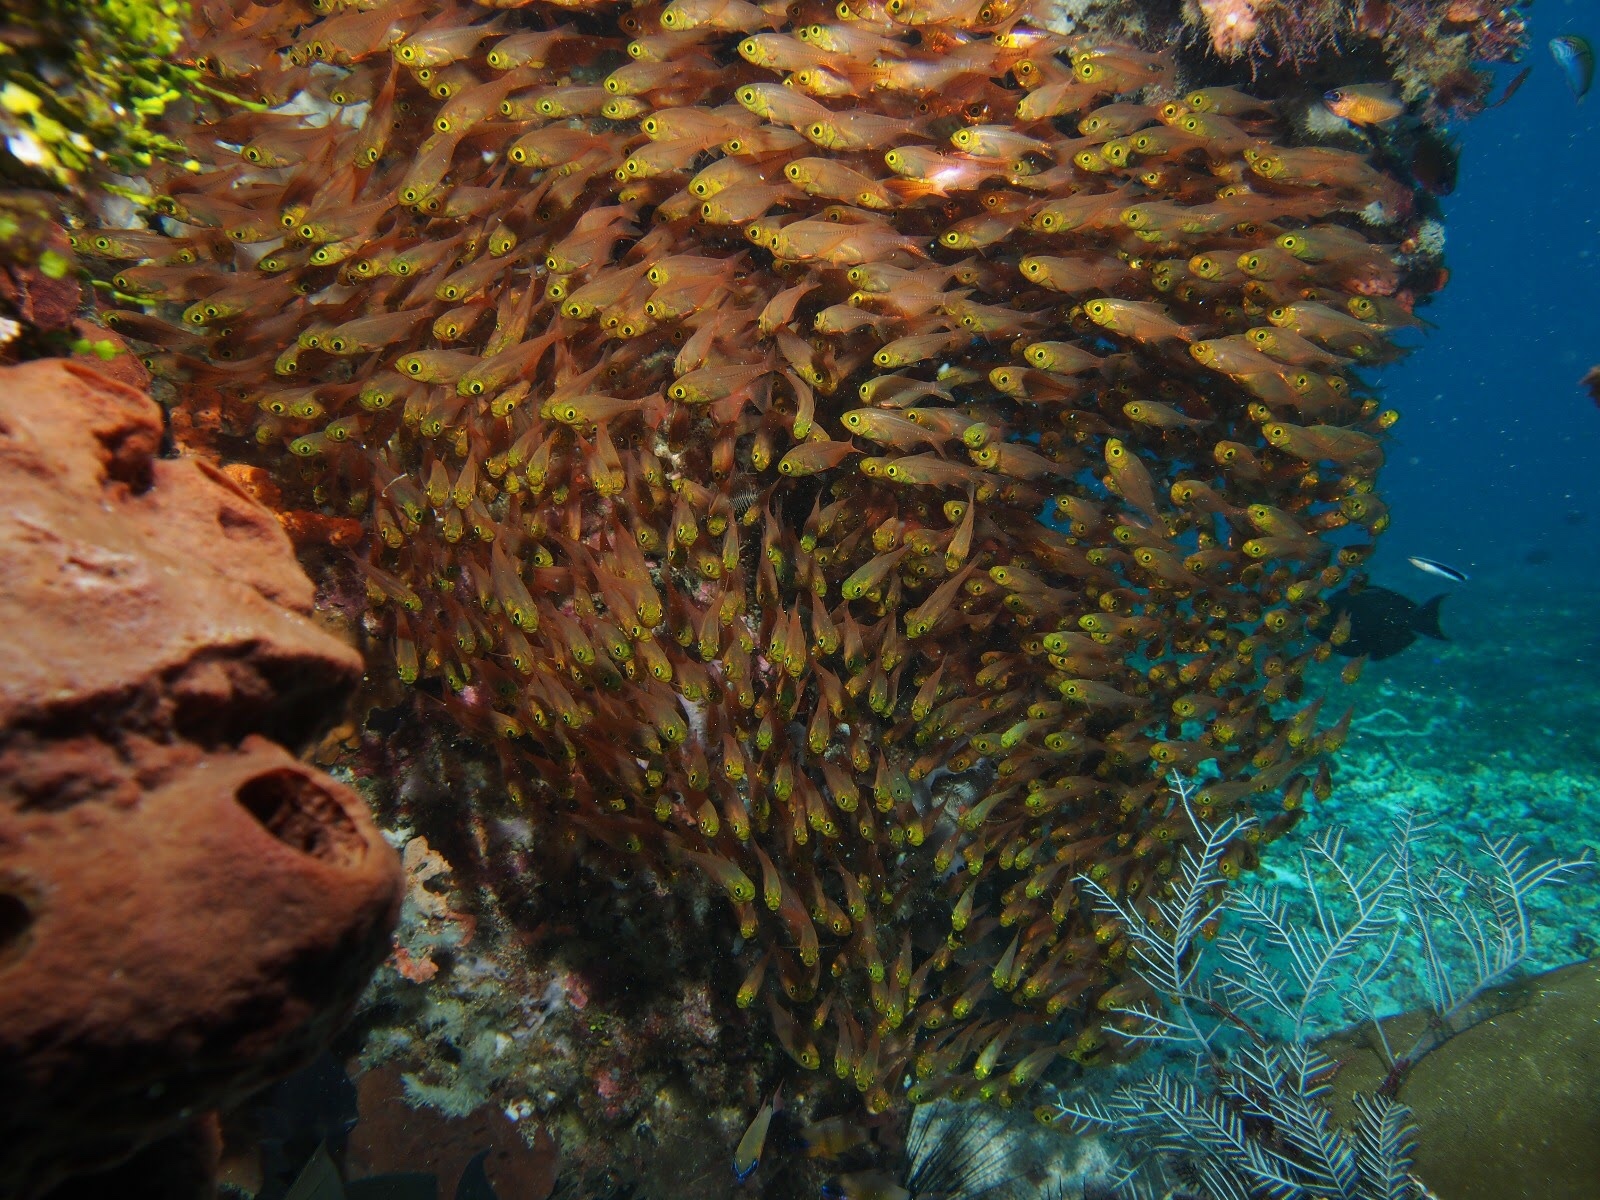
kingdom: Animalia
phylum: Chordata
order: Perciformes
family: Pempheridae
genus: Parapriacanthus
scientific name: Parapriacanthus ransonneti
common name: Pigmy sweeper
